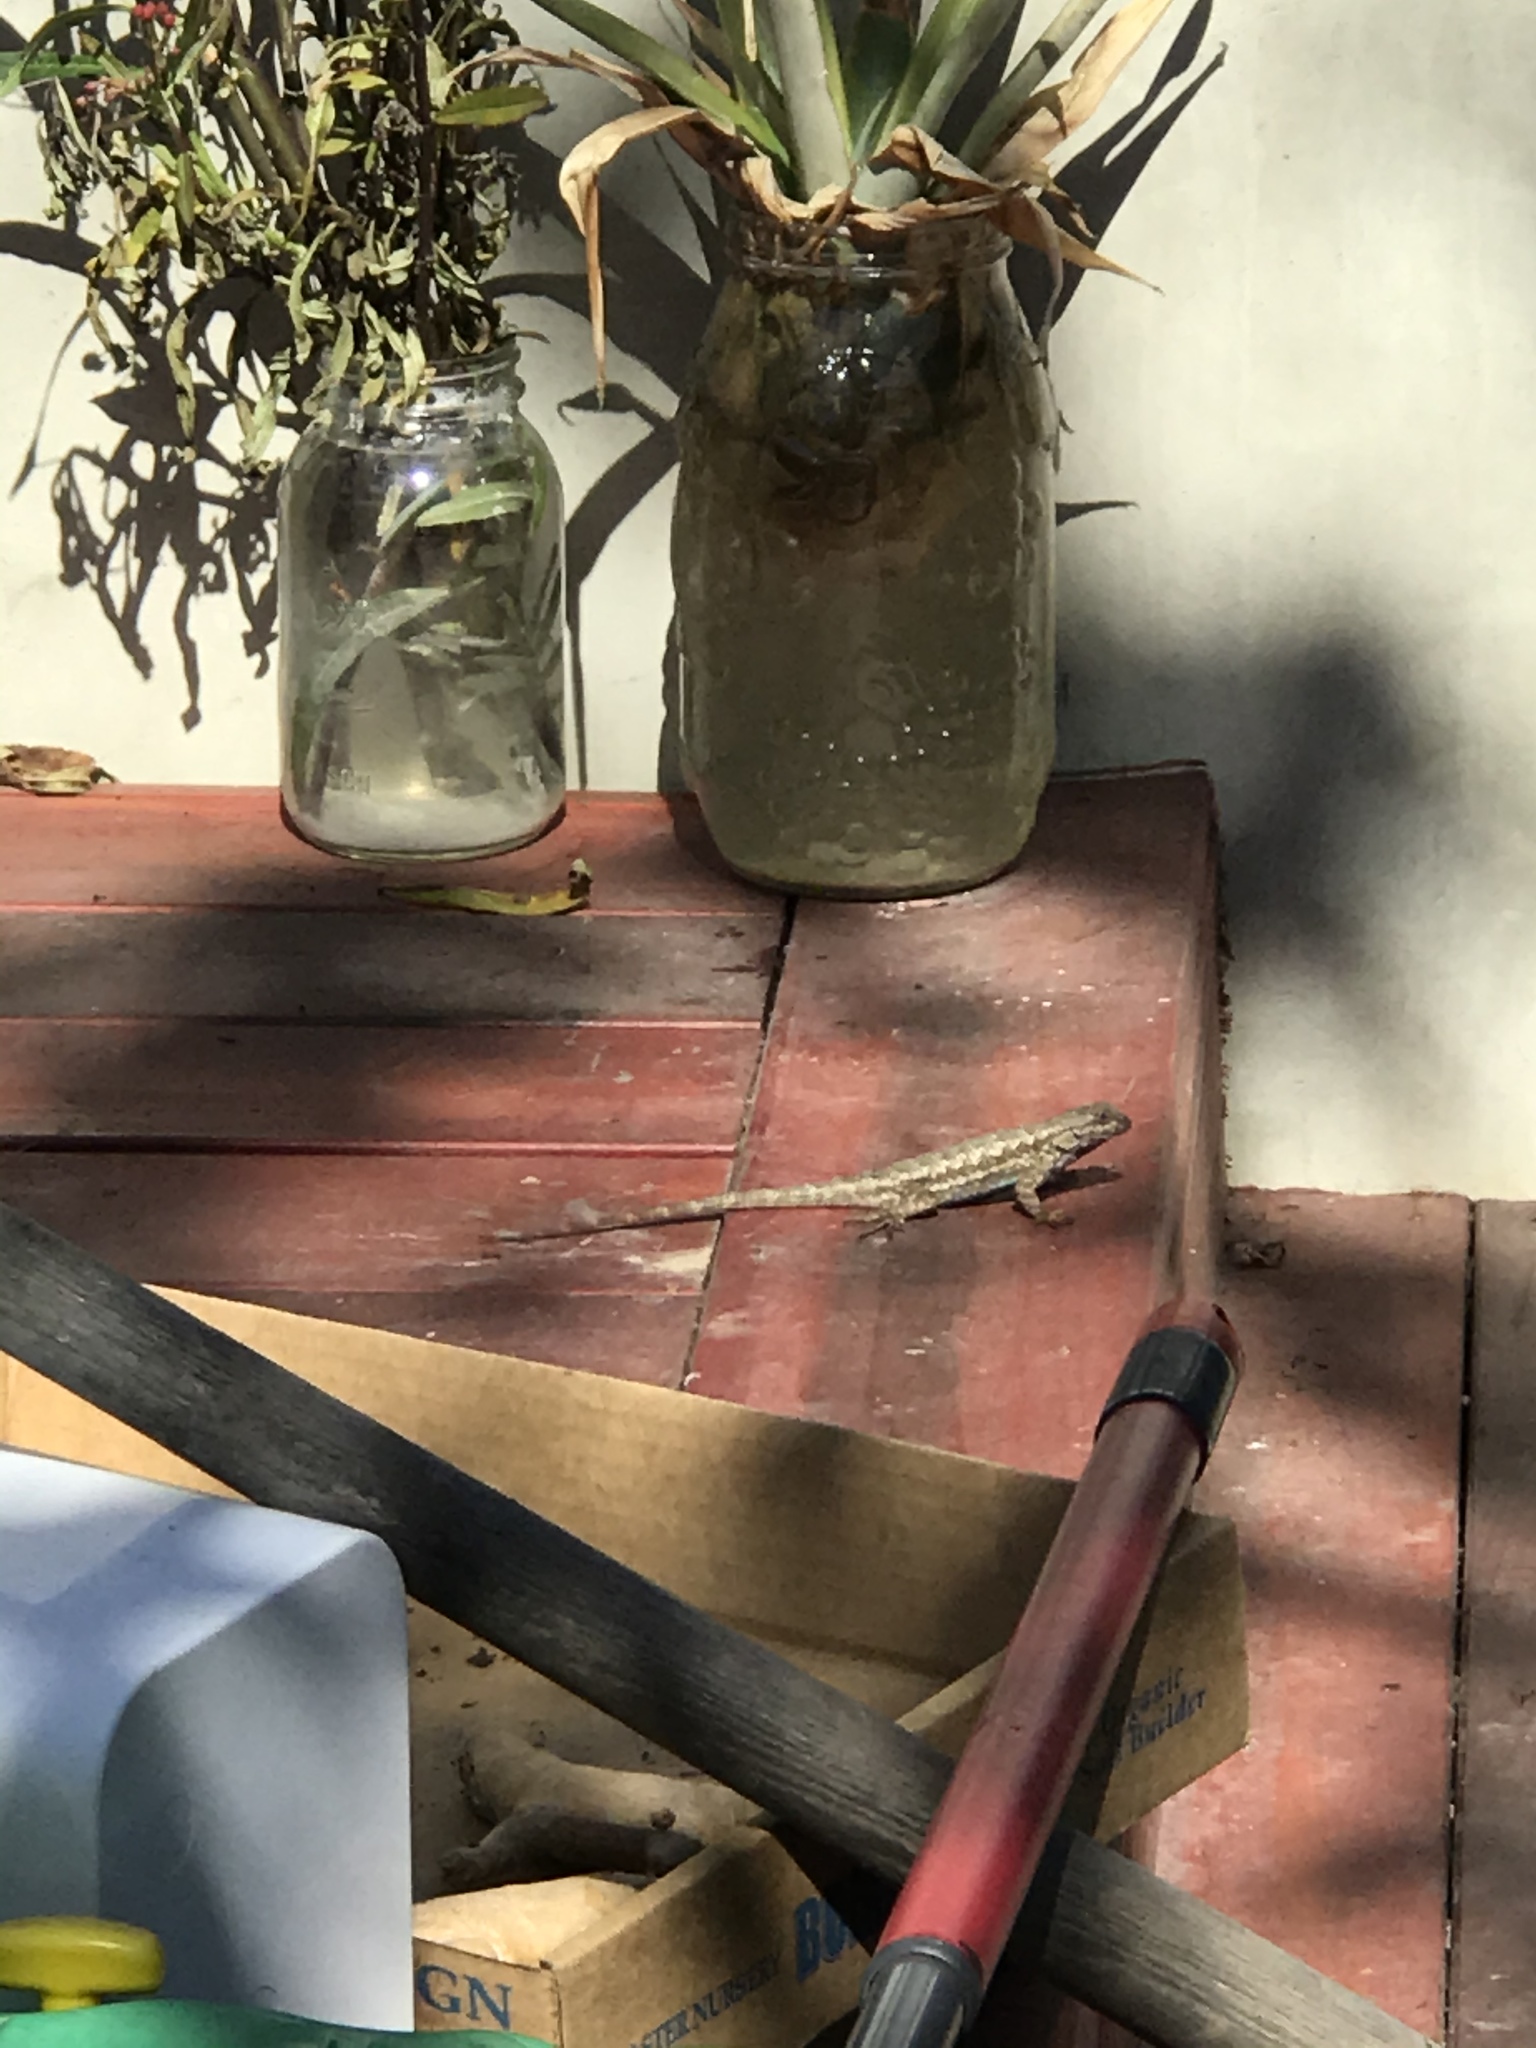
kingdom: Animalia
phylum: Chordata
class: Squamata
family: Phrynosomatidae
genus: Sceloporus
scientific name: Sceloporus occidentalis
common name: Western fence lizard
